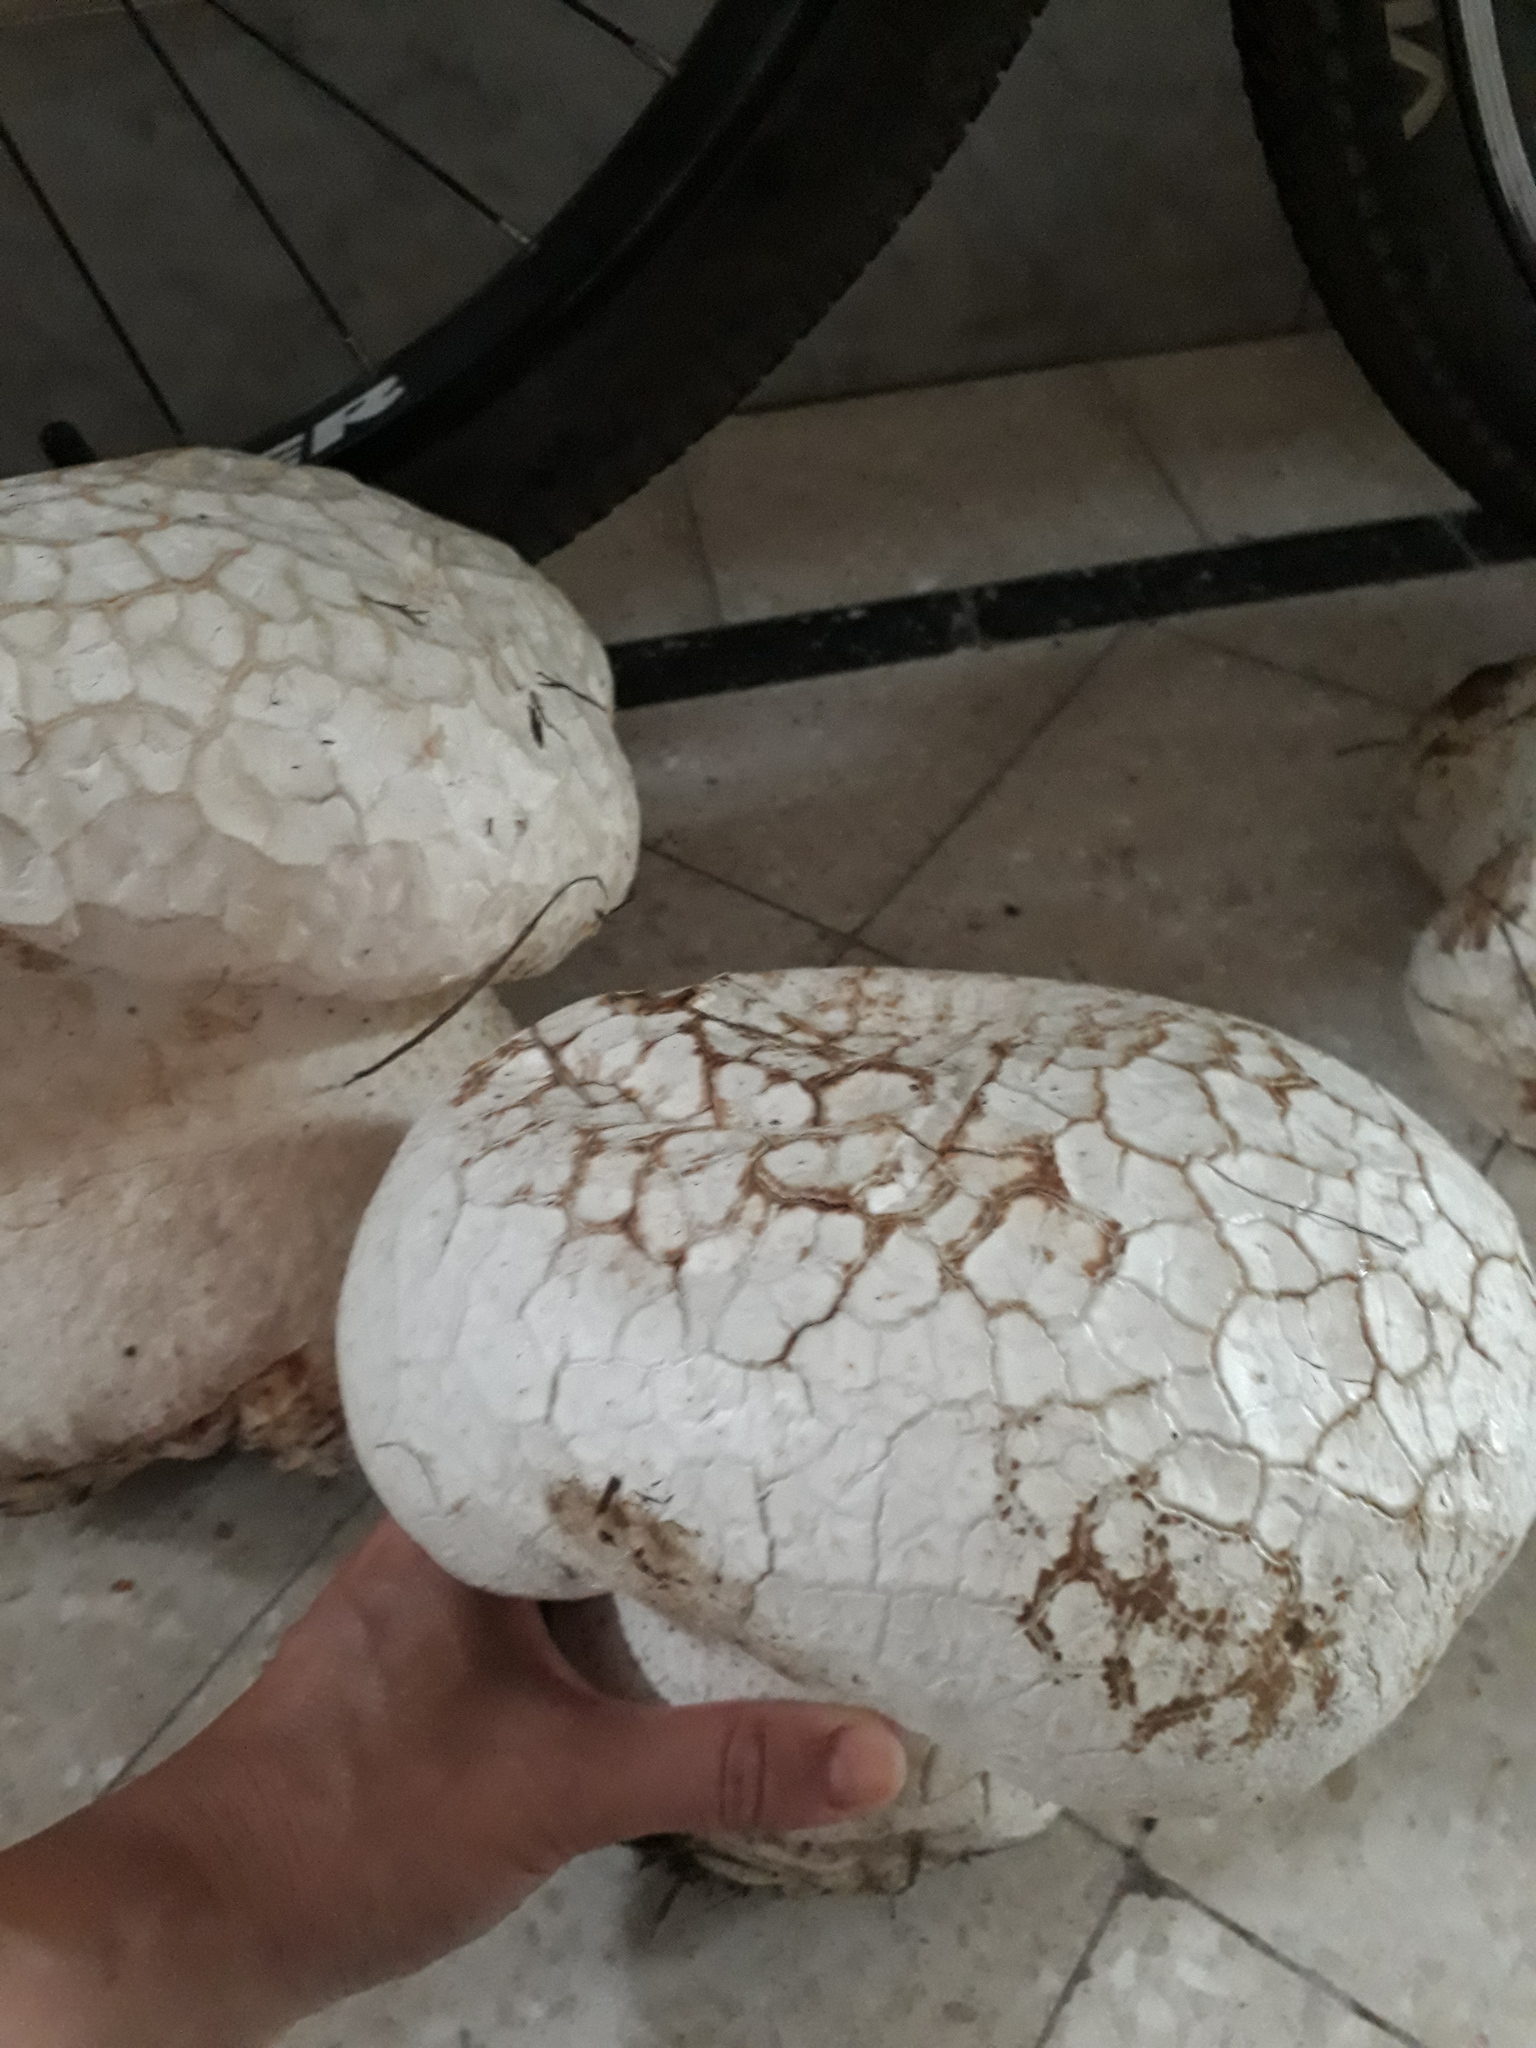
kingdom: Fungi
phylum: Basidiomycota
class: Agaricomycetes
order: Agaricales
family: Lycoperdaceae
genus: Calvatia
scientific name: Calvatia cyathiformis
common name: Purple-spored puffball
